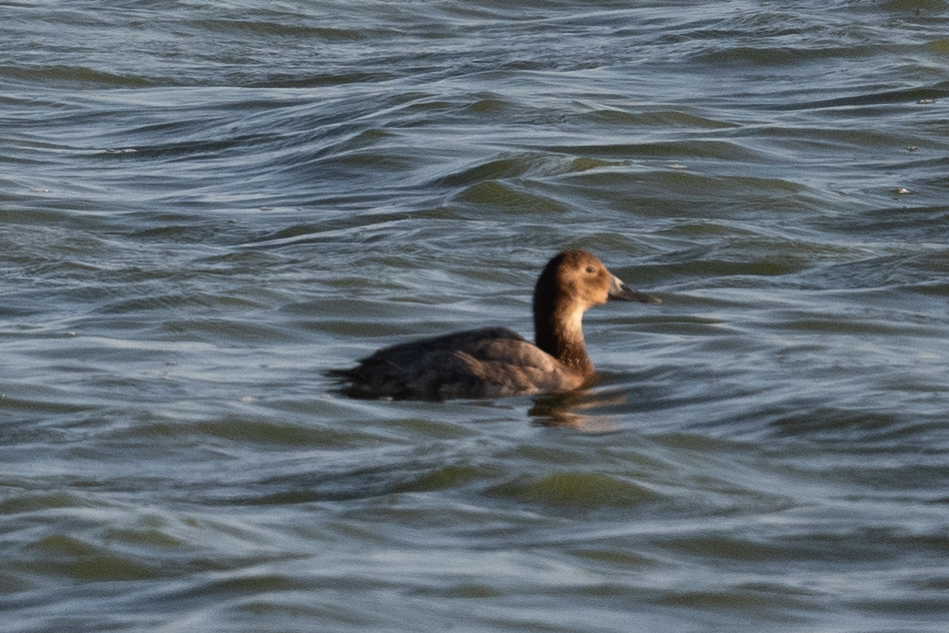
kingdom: Animalia
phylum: Chordata
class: Aves
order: Anseriformes
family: Anatidae
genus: Aythya
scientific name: Aythya valisineria
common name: Canvasback
